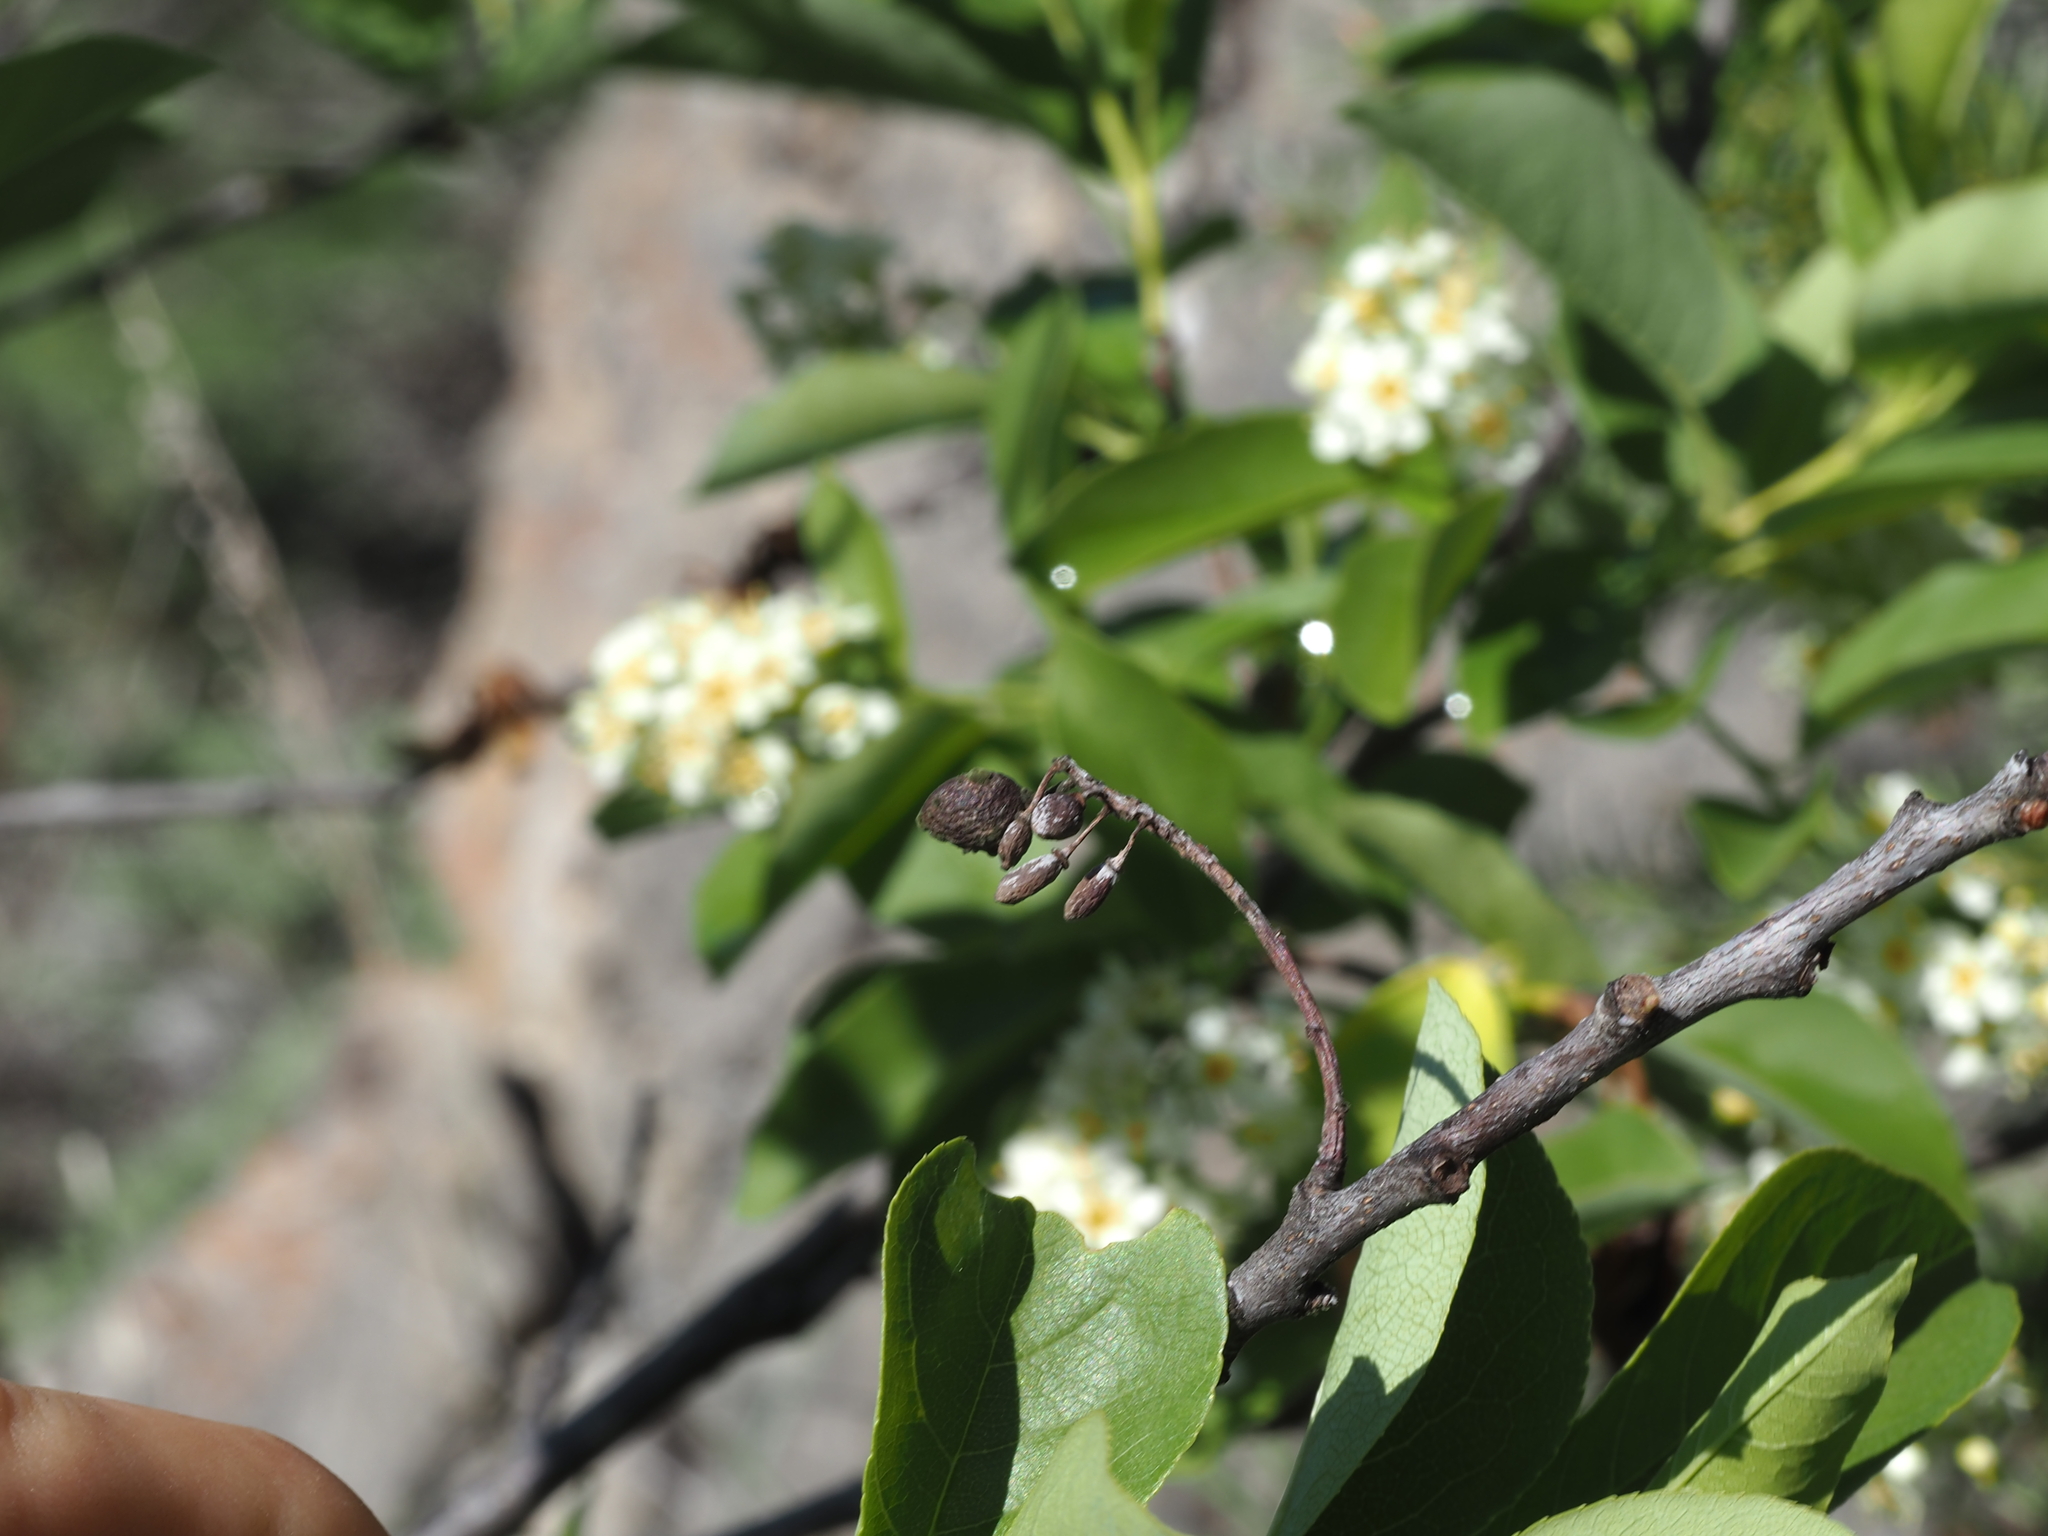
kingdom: Plantae
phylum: Tracheophyta
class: Magnoliopsida
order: Rosales
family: Rosaceae
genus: Prunus
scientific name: Prunus virginiana
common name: Chokecherry
